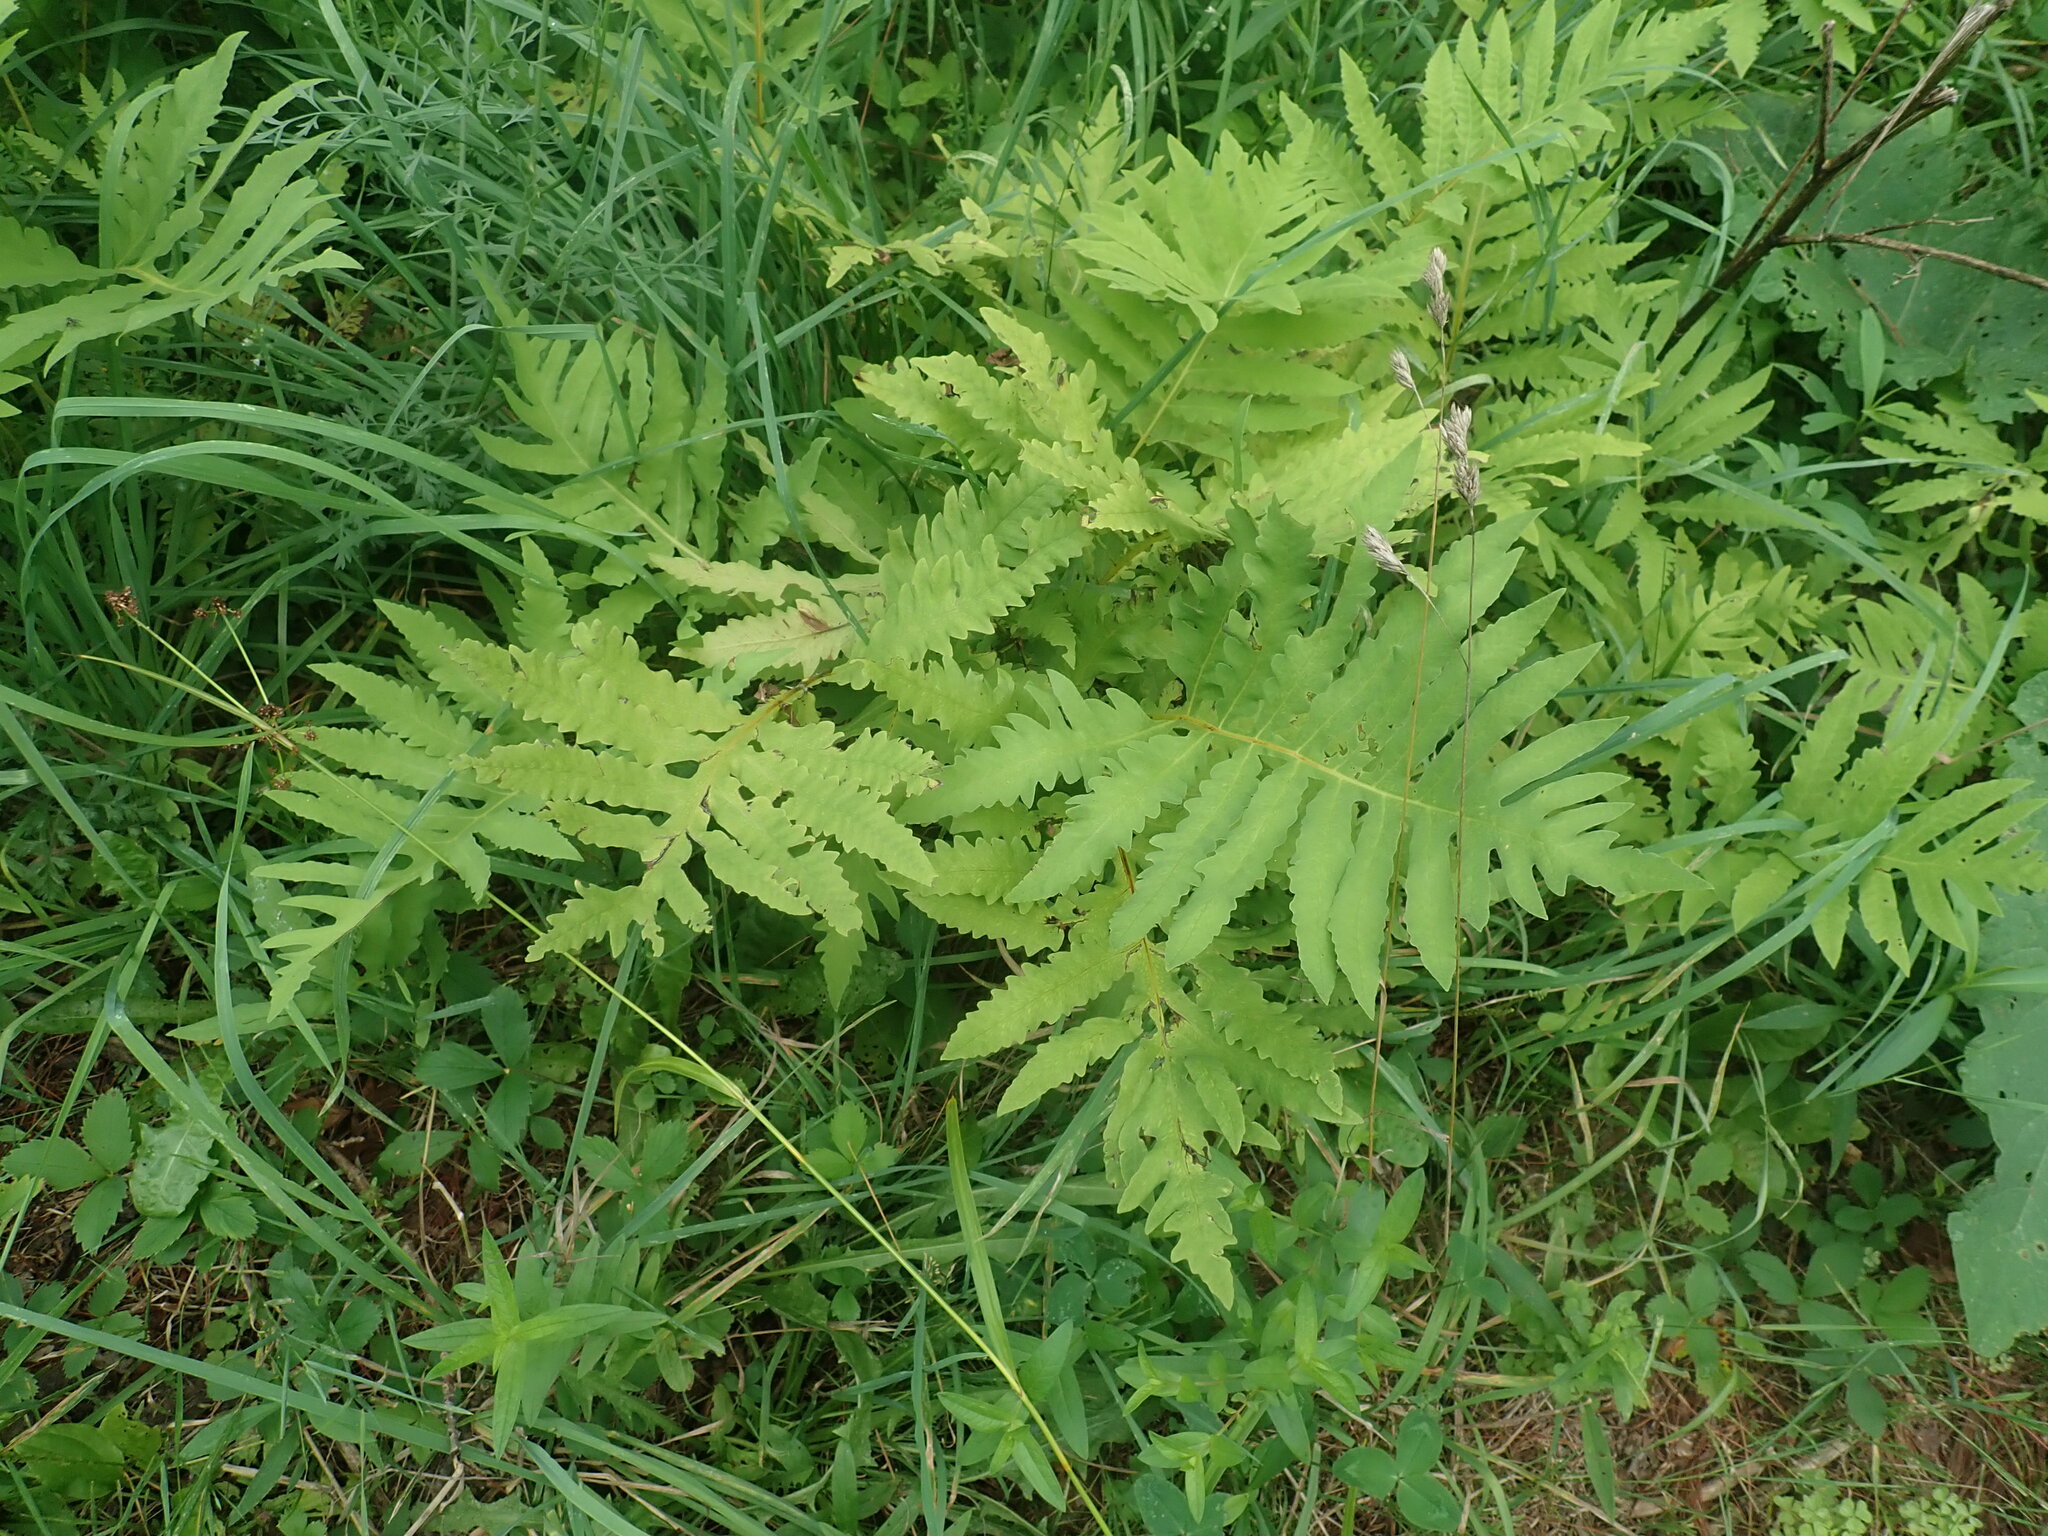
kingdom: Plantae
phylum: Tracheophyta
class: Polypodiopsida
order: Polypodiales
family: Onocleaceae
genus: Onoclea
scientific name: Onoclea sensibilis
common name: Sensitive fern
